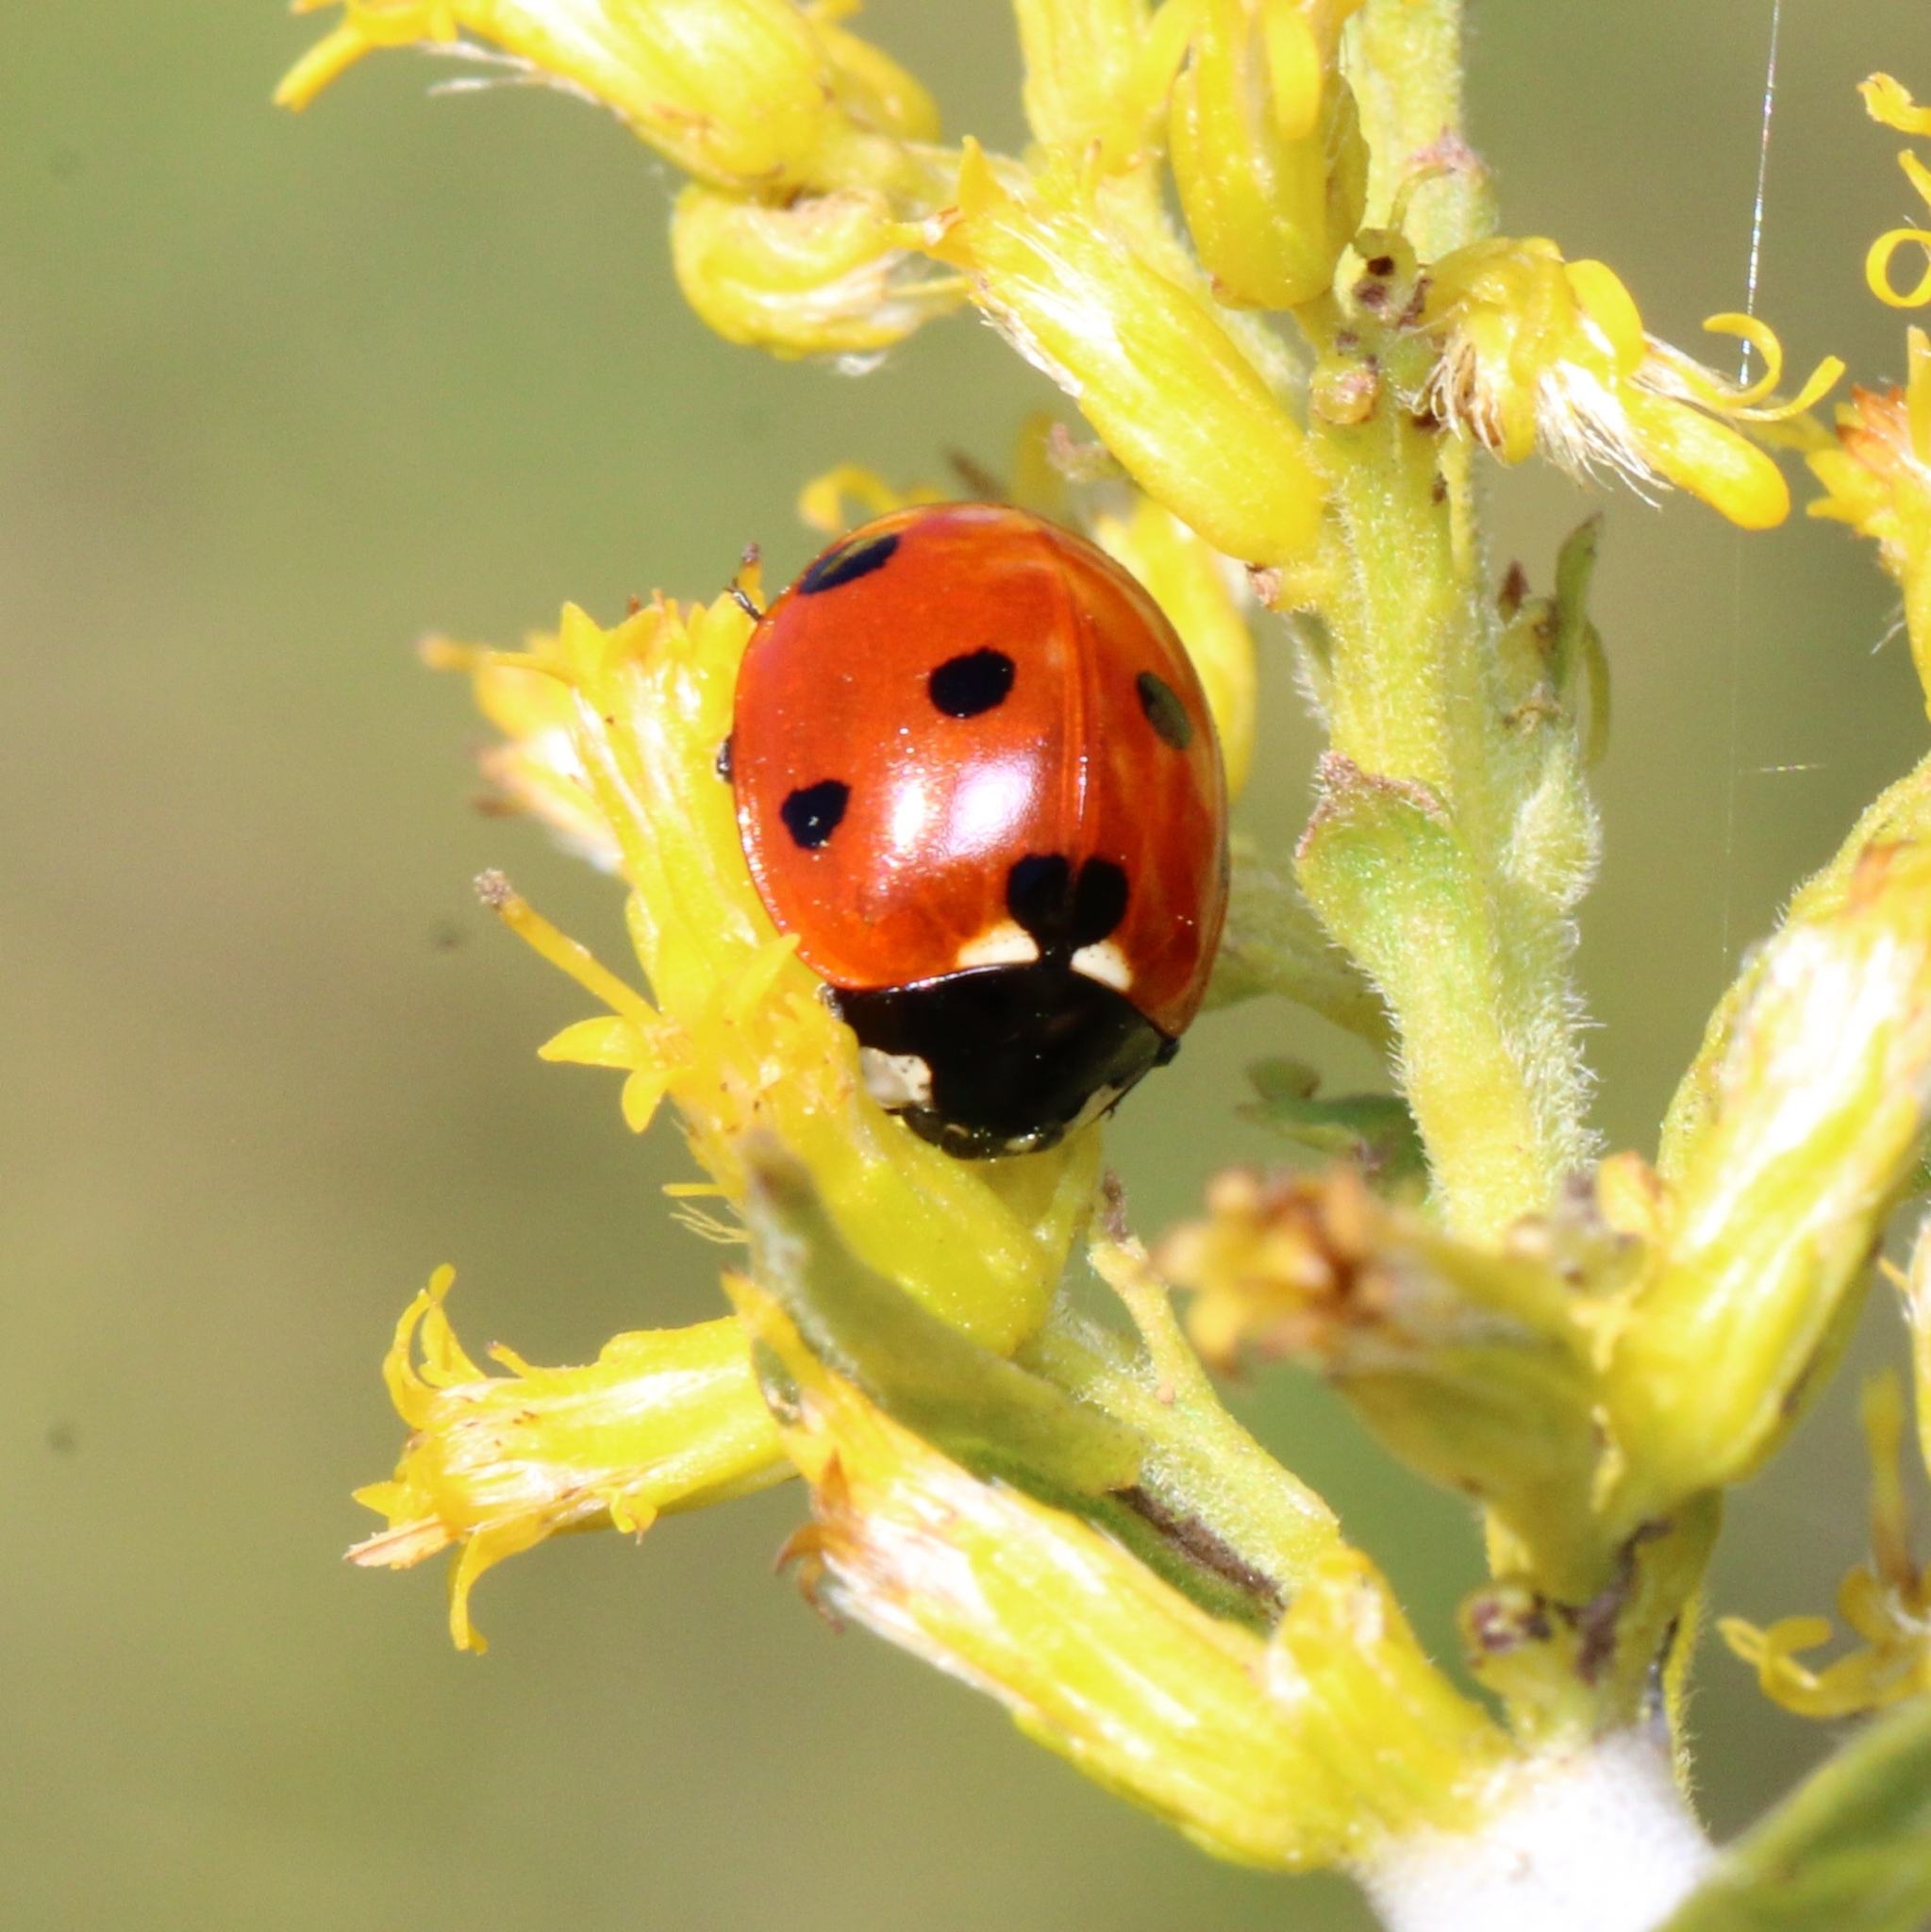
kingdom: Animalia
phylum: Arthropoda
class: Insecta
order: Coleoptera
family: Coccinellidae
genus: Coccinella
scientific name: Coccinella septempunctata
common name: Sevenspotted lady beetle
